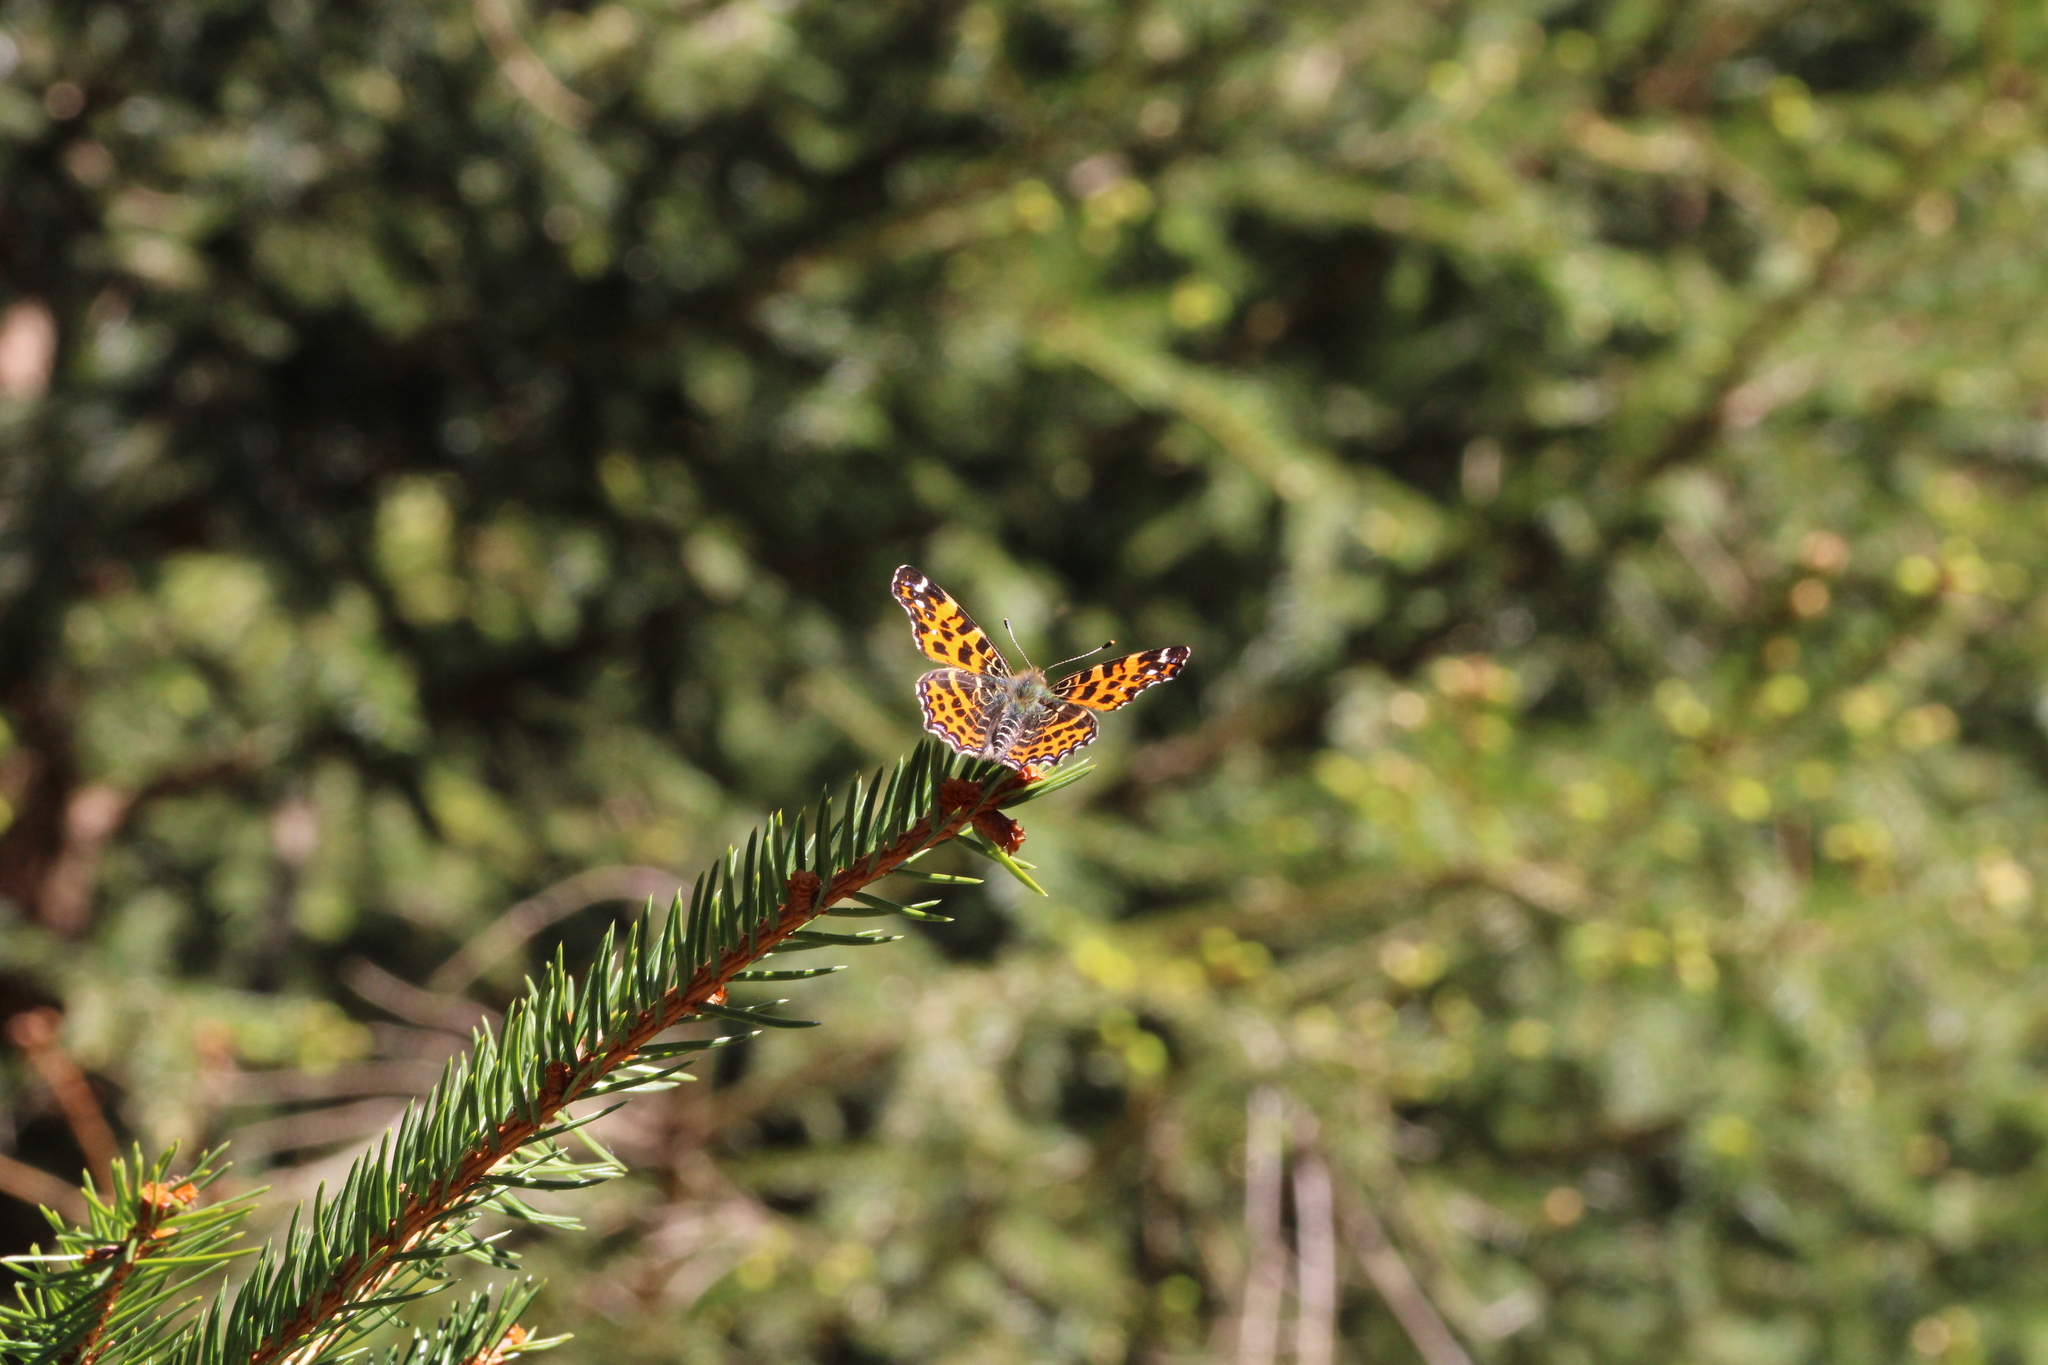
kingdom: Animalia
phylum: Arthropoda
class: Insecta
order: Lepidoptera
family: Nymphalidae
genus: Araschnia
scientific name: Araschnia levana
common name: Map butterfly
